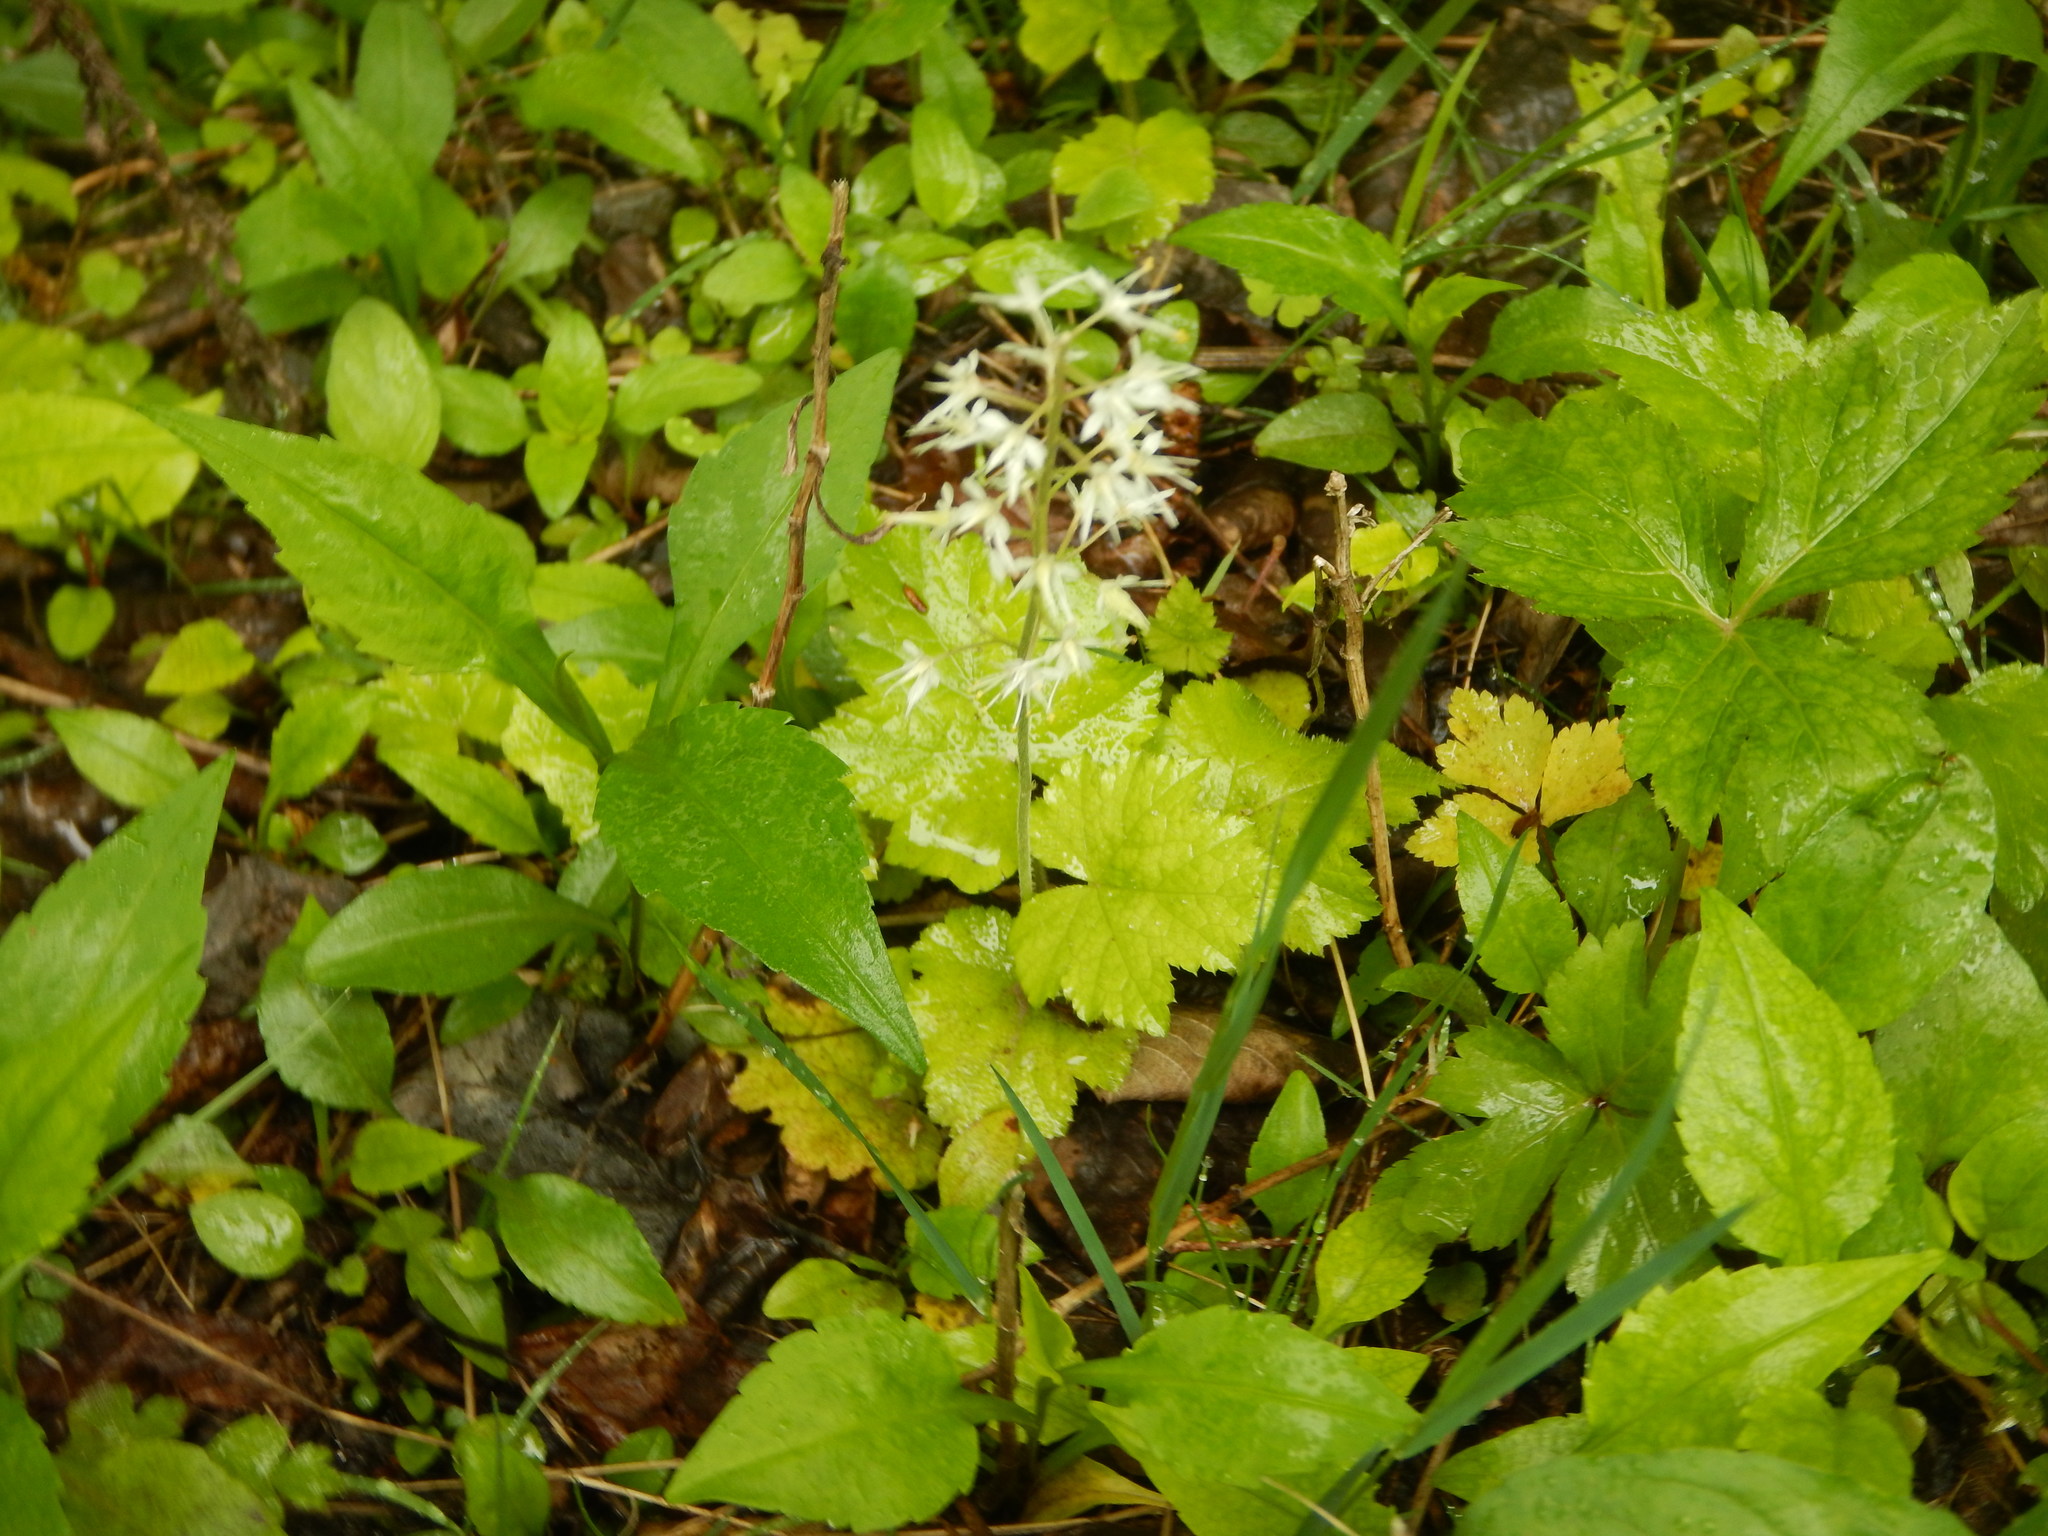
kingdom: Plantae
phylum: Tracheophyta
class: Magnoliopsida
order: Saxifragales
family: Saxifragaceae
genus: Tiarella
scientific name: Tiarella stolonifera
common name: Stoloniferous foamflower
